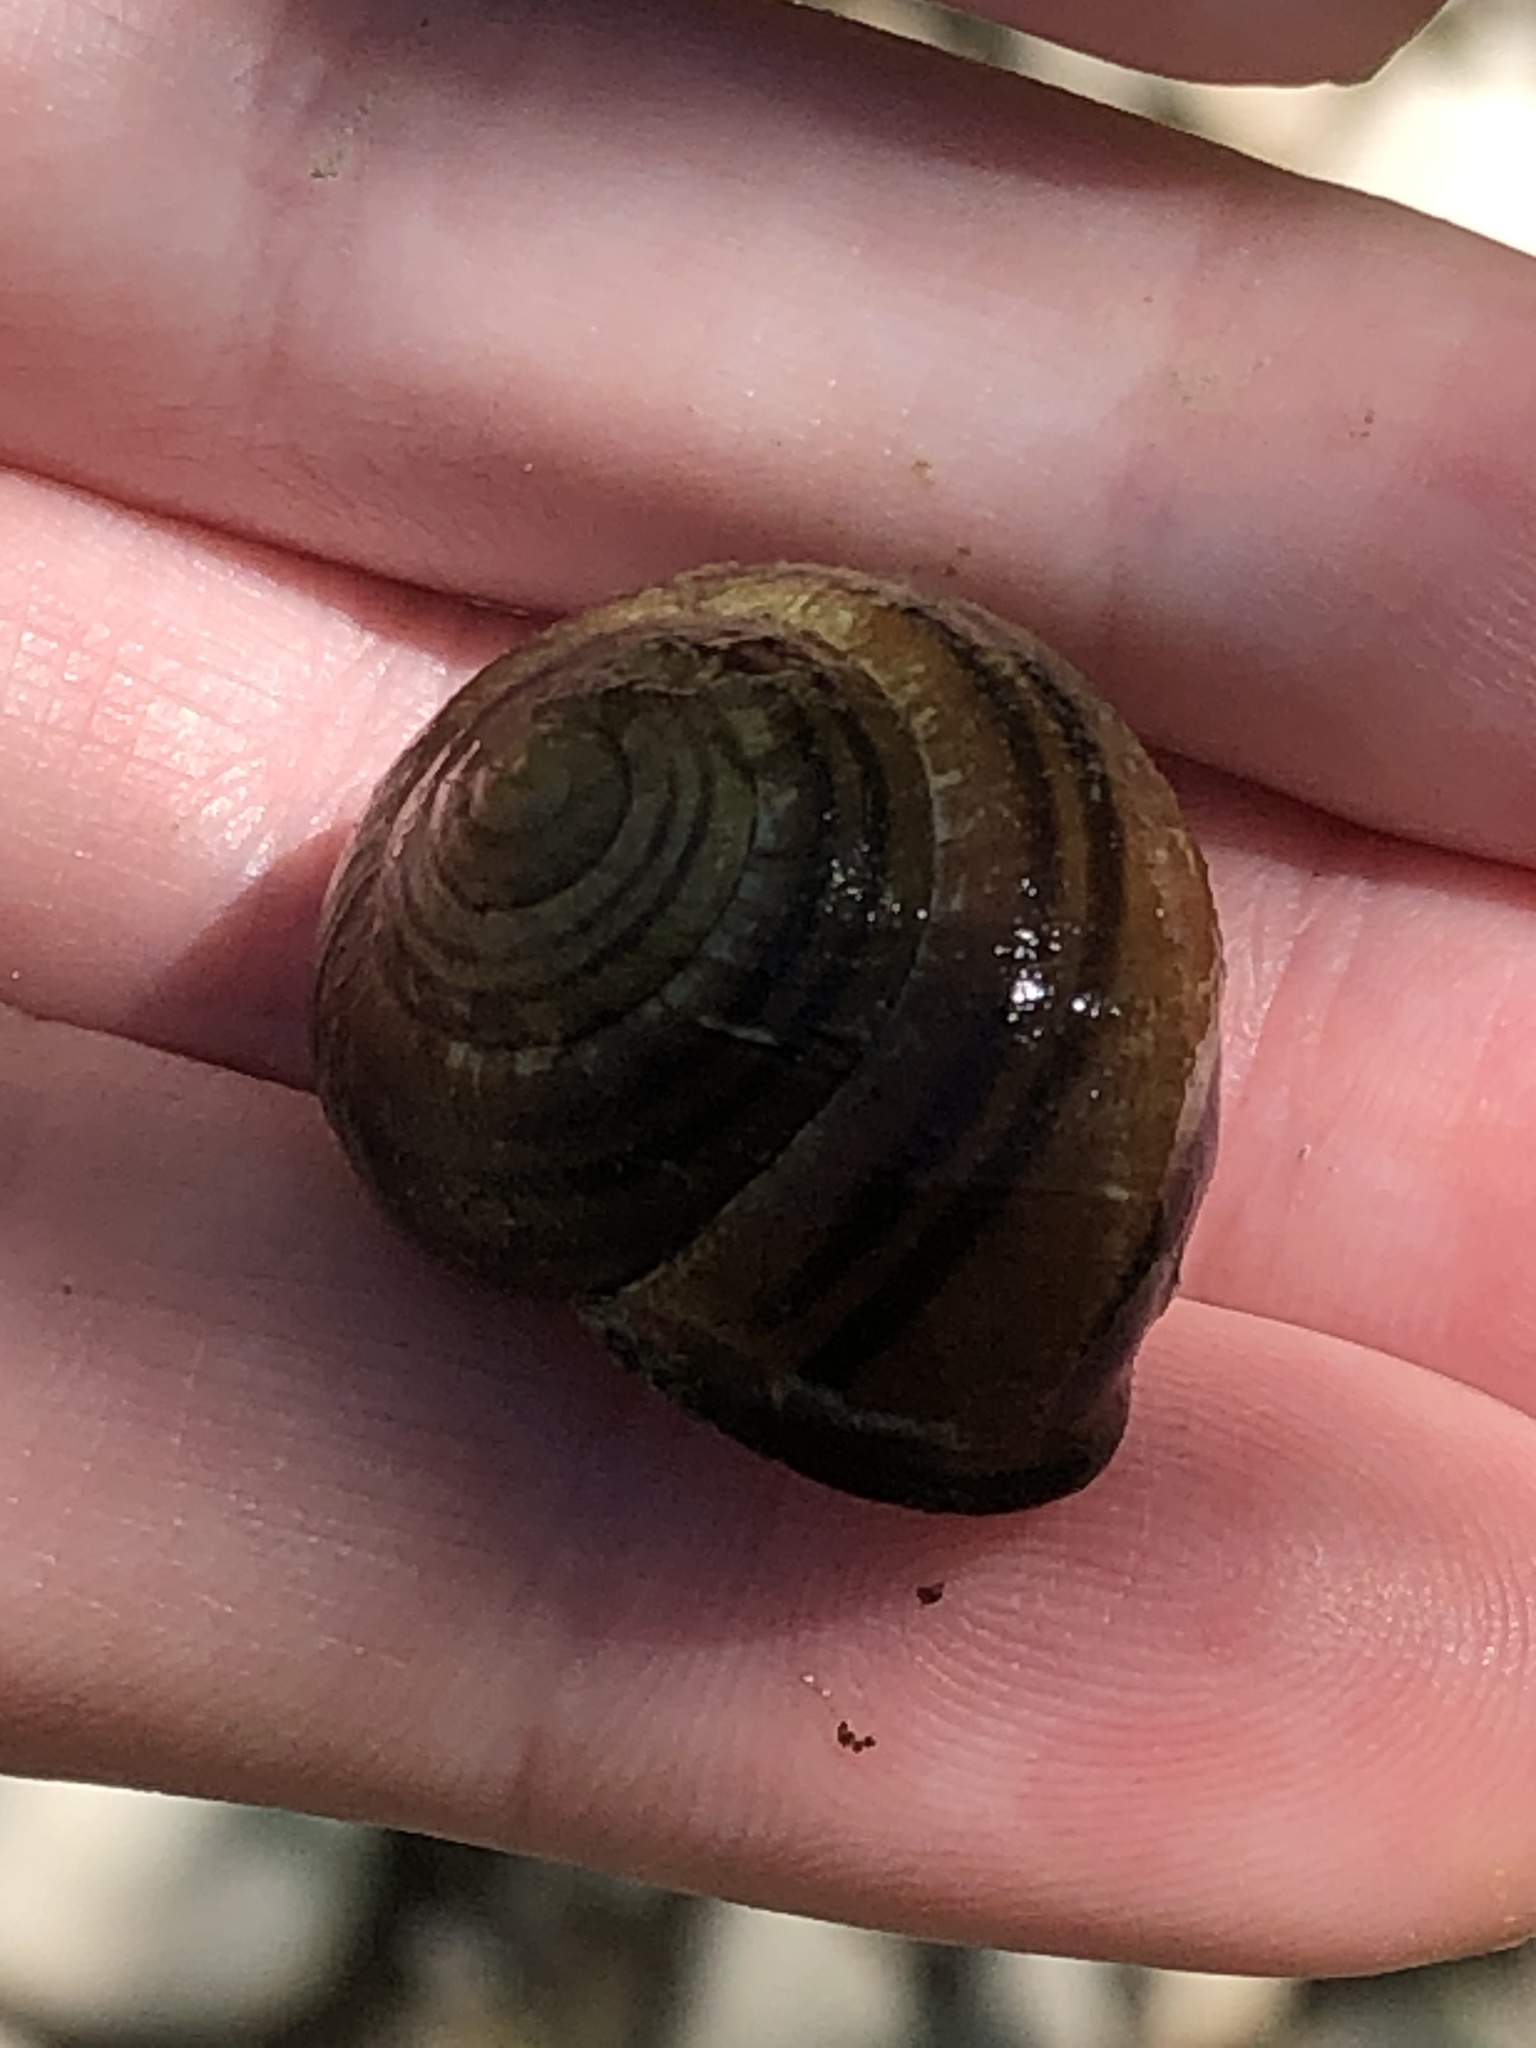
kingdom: Animalia
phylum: Mollusca
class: Gastropoda
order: Stylommatophora
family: Helicidae
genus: Cepaea
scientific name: Cepaea nemoralis
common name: Grovesnail
